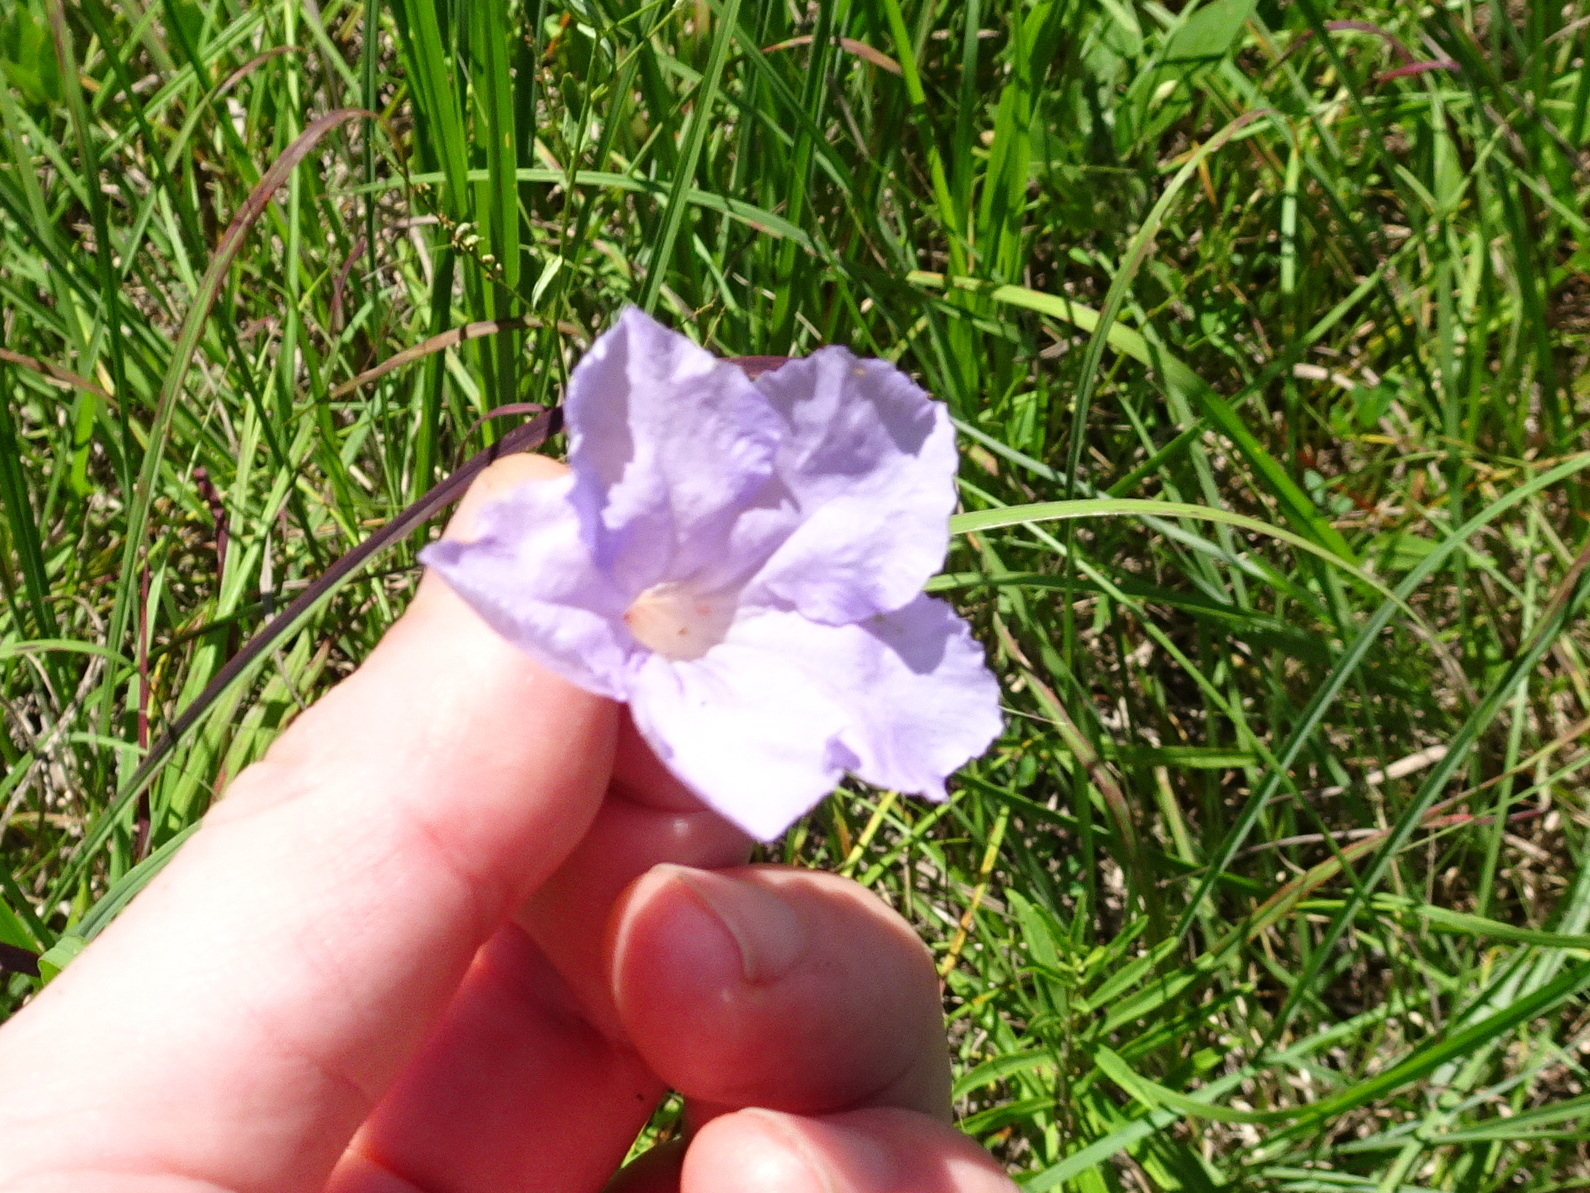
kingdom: Plantae
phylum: Tracheophyta
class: Magnoliopsida
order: Lamiales
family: Acanthaceae
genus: Ruellia
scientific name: Ruellia humilis
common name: Fringe-leaf ruellia
